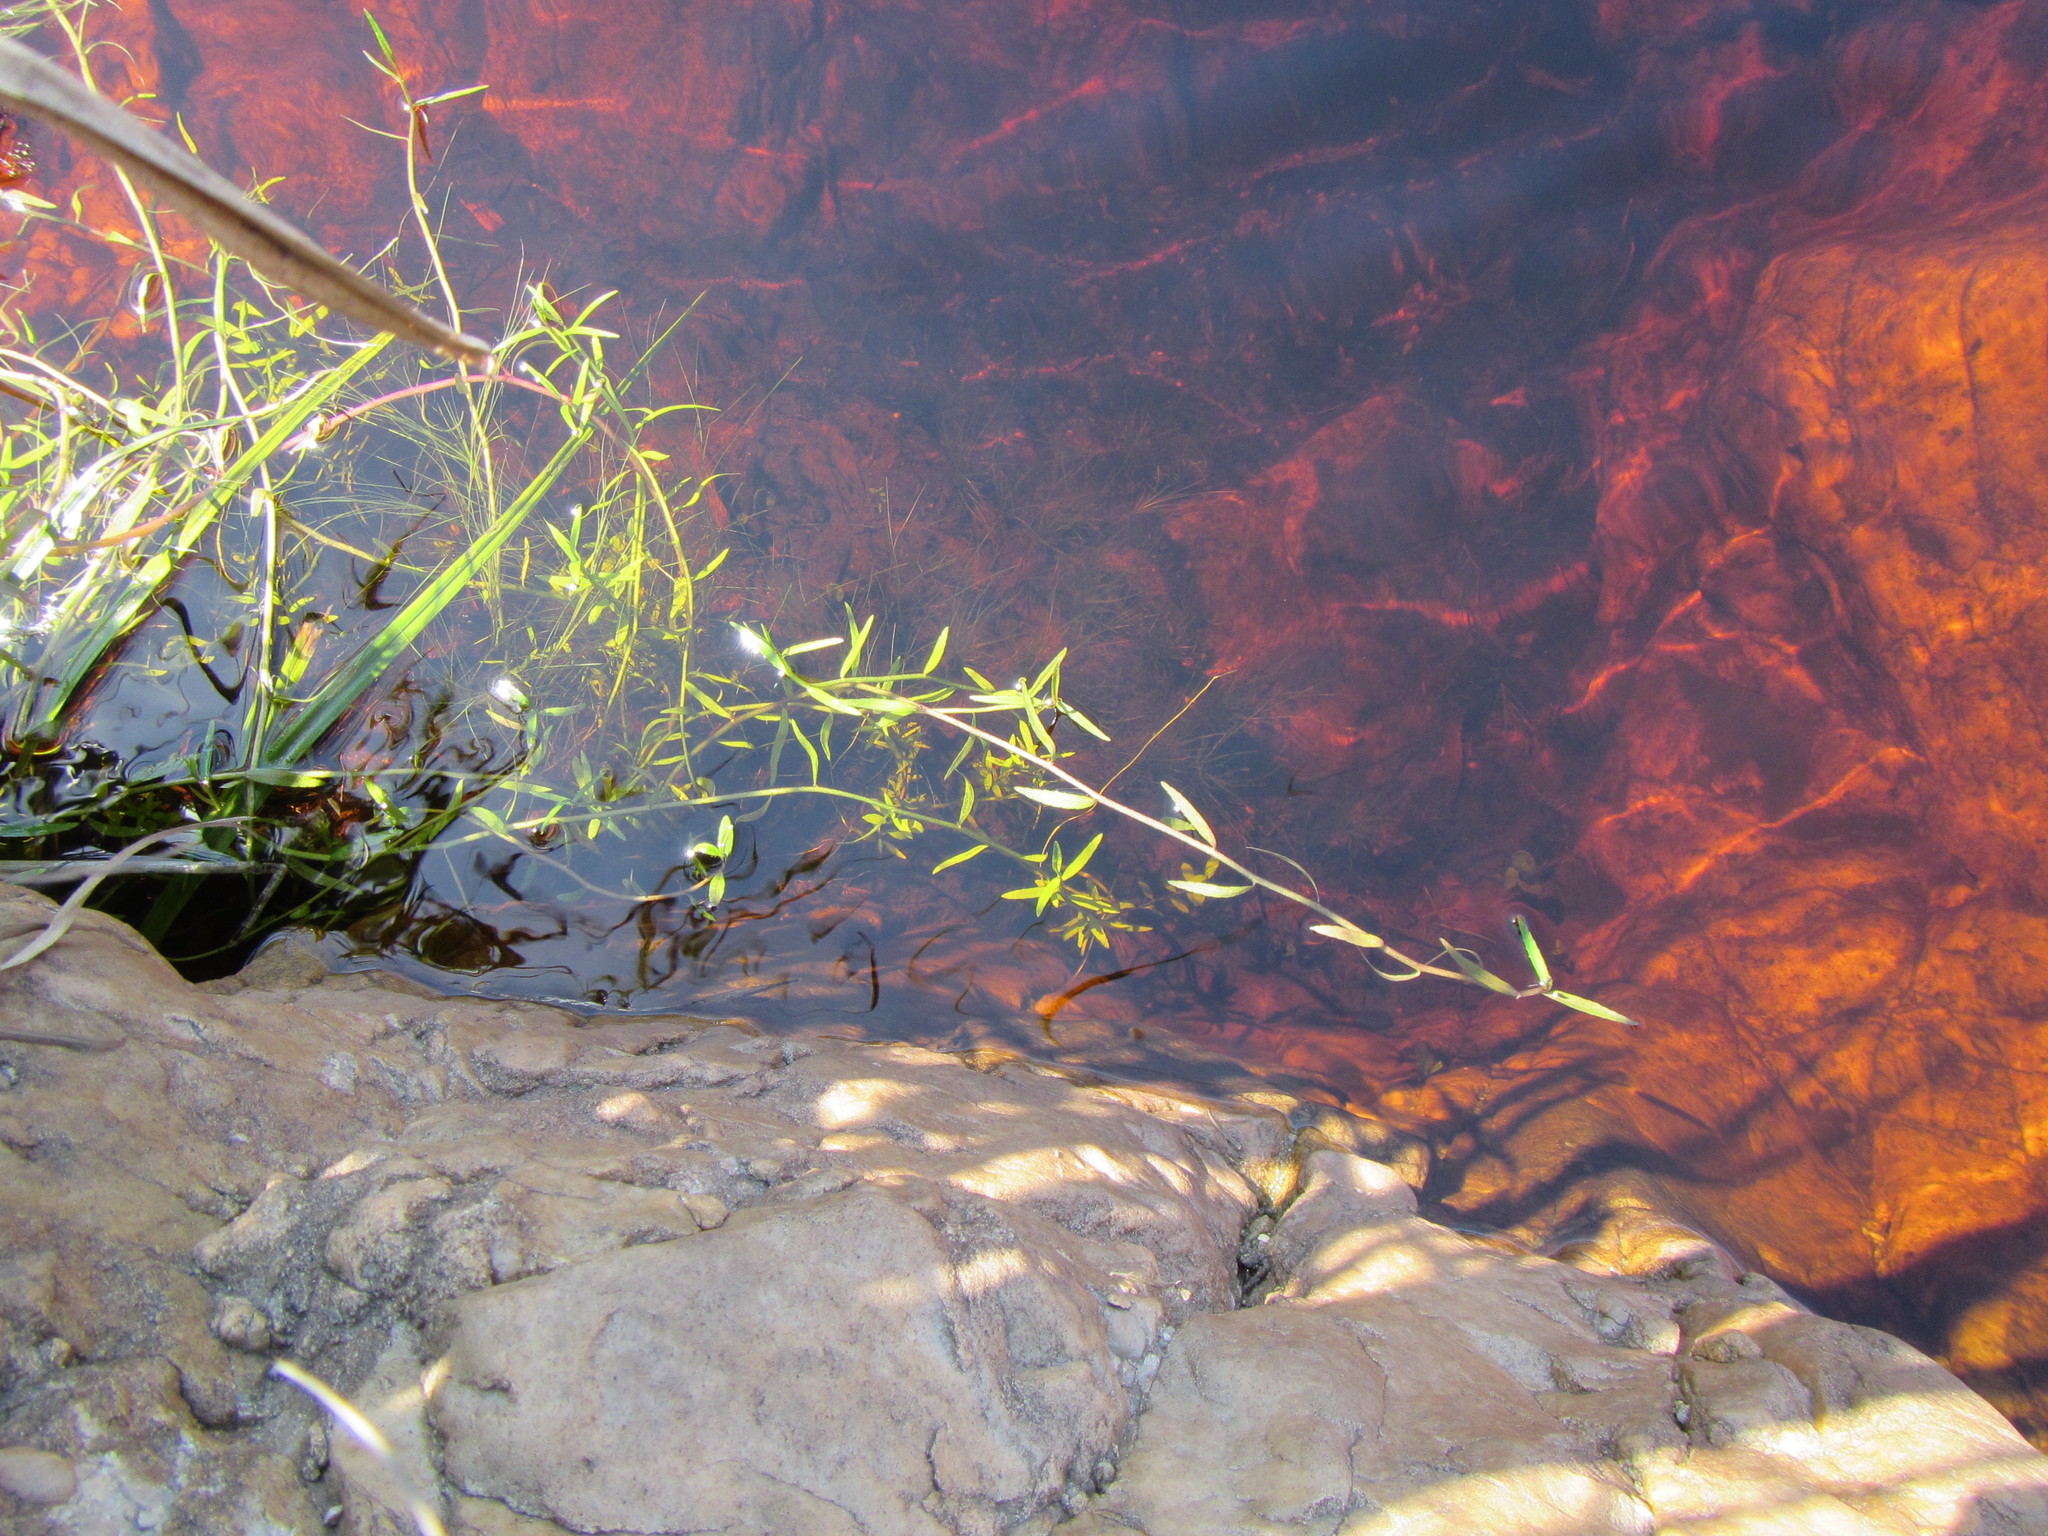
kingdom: Plantae
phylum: Tracheophyta
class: Magnoliopsida
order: Asterales
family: Campanulaceae
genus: Grammatotheca
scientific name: Grammatotheca bergiana
